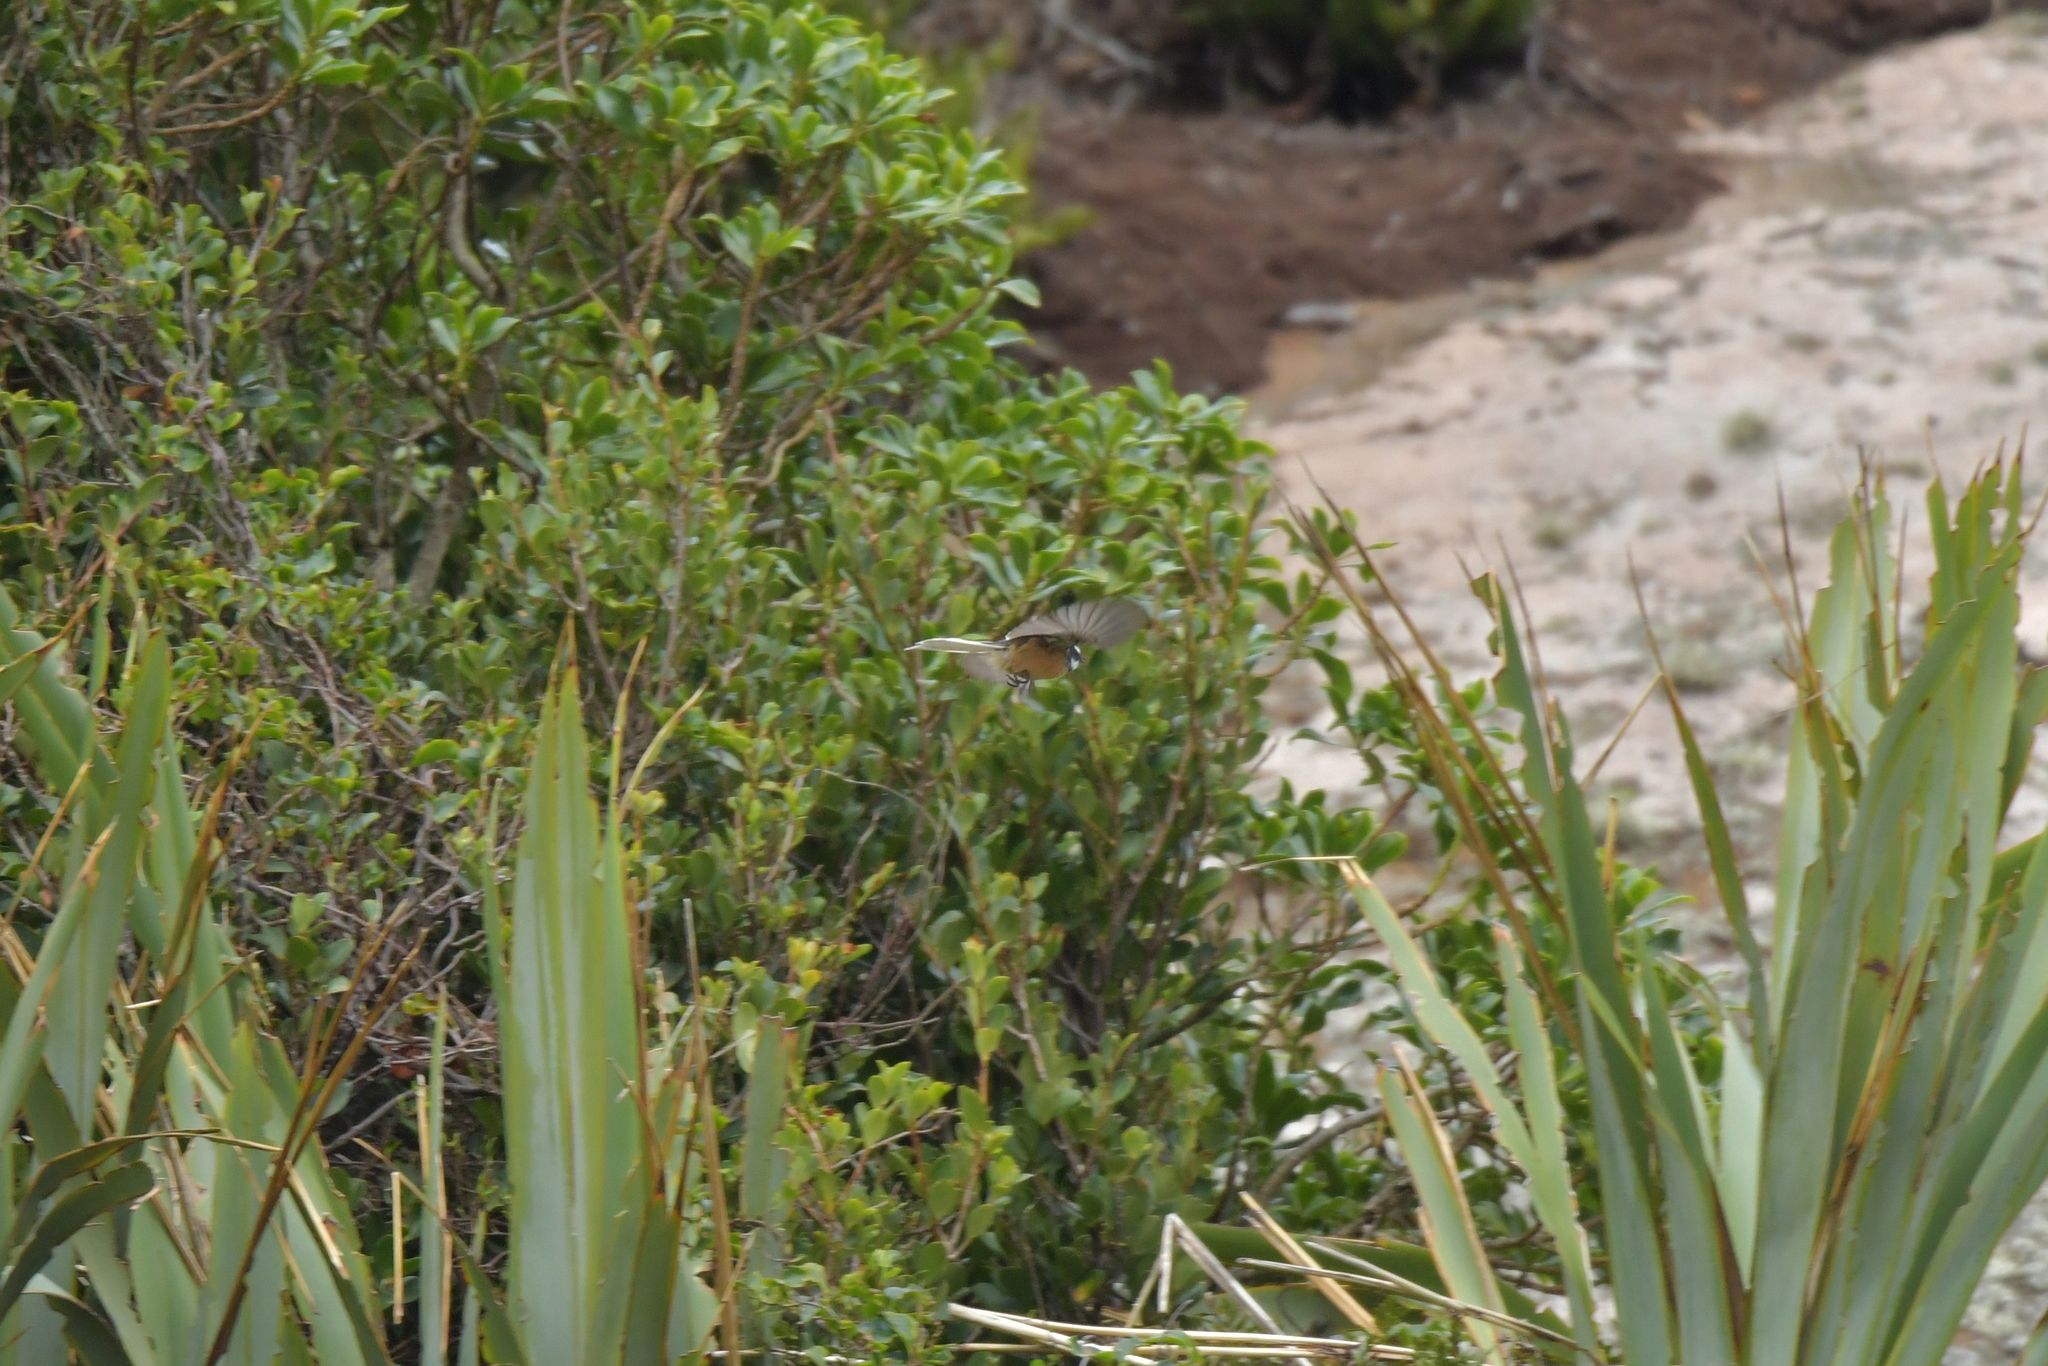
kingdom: Animalia
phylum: Chordata
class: Aves
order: Passeriformes
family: Rhipiduridae
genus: Rhipidura
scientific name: Rhipidura fuliginosa
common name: New zealand fantail
